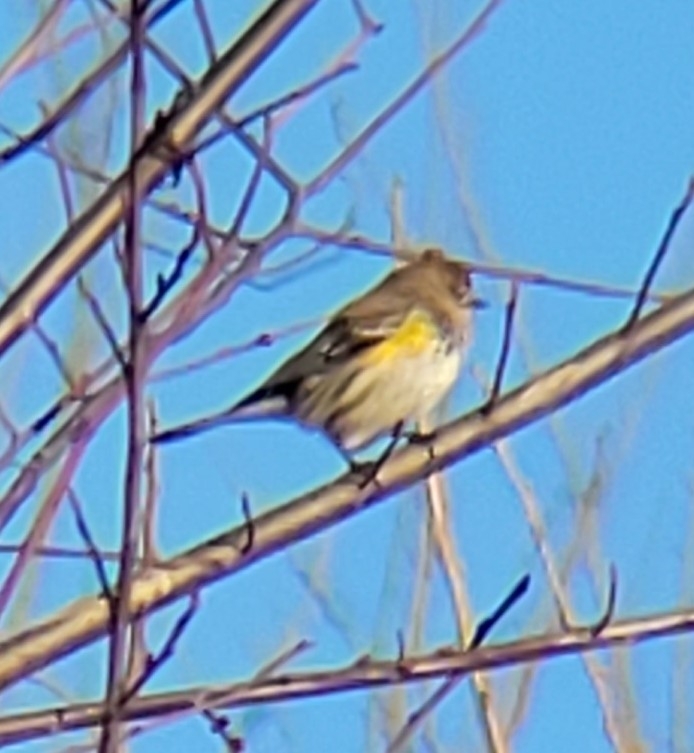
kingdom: Animalia
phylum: Chordata
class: Aves
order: Passeriformes
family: Parulidae
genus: Setophaga
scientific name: Setophaga coronata
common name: Myrtle warbler
